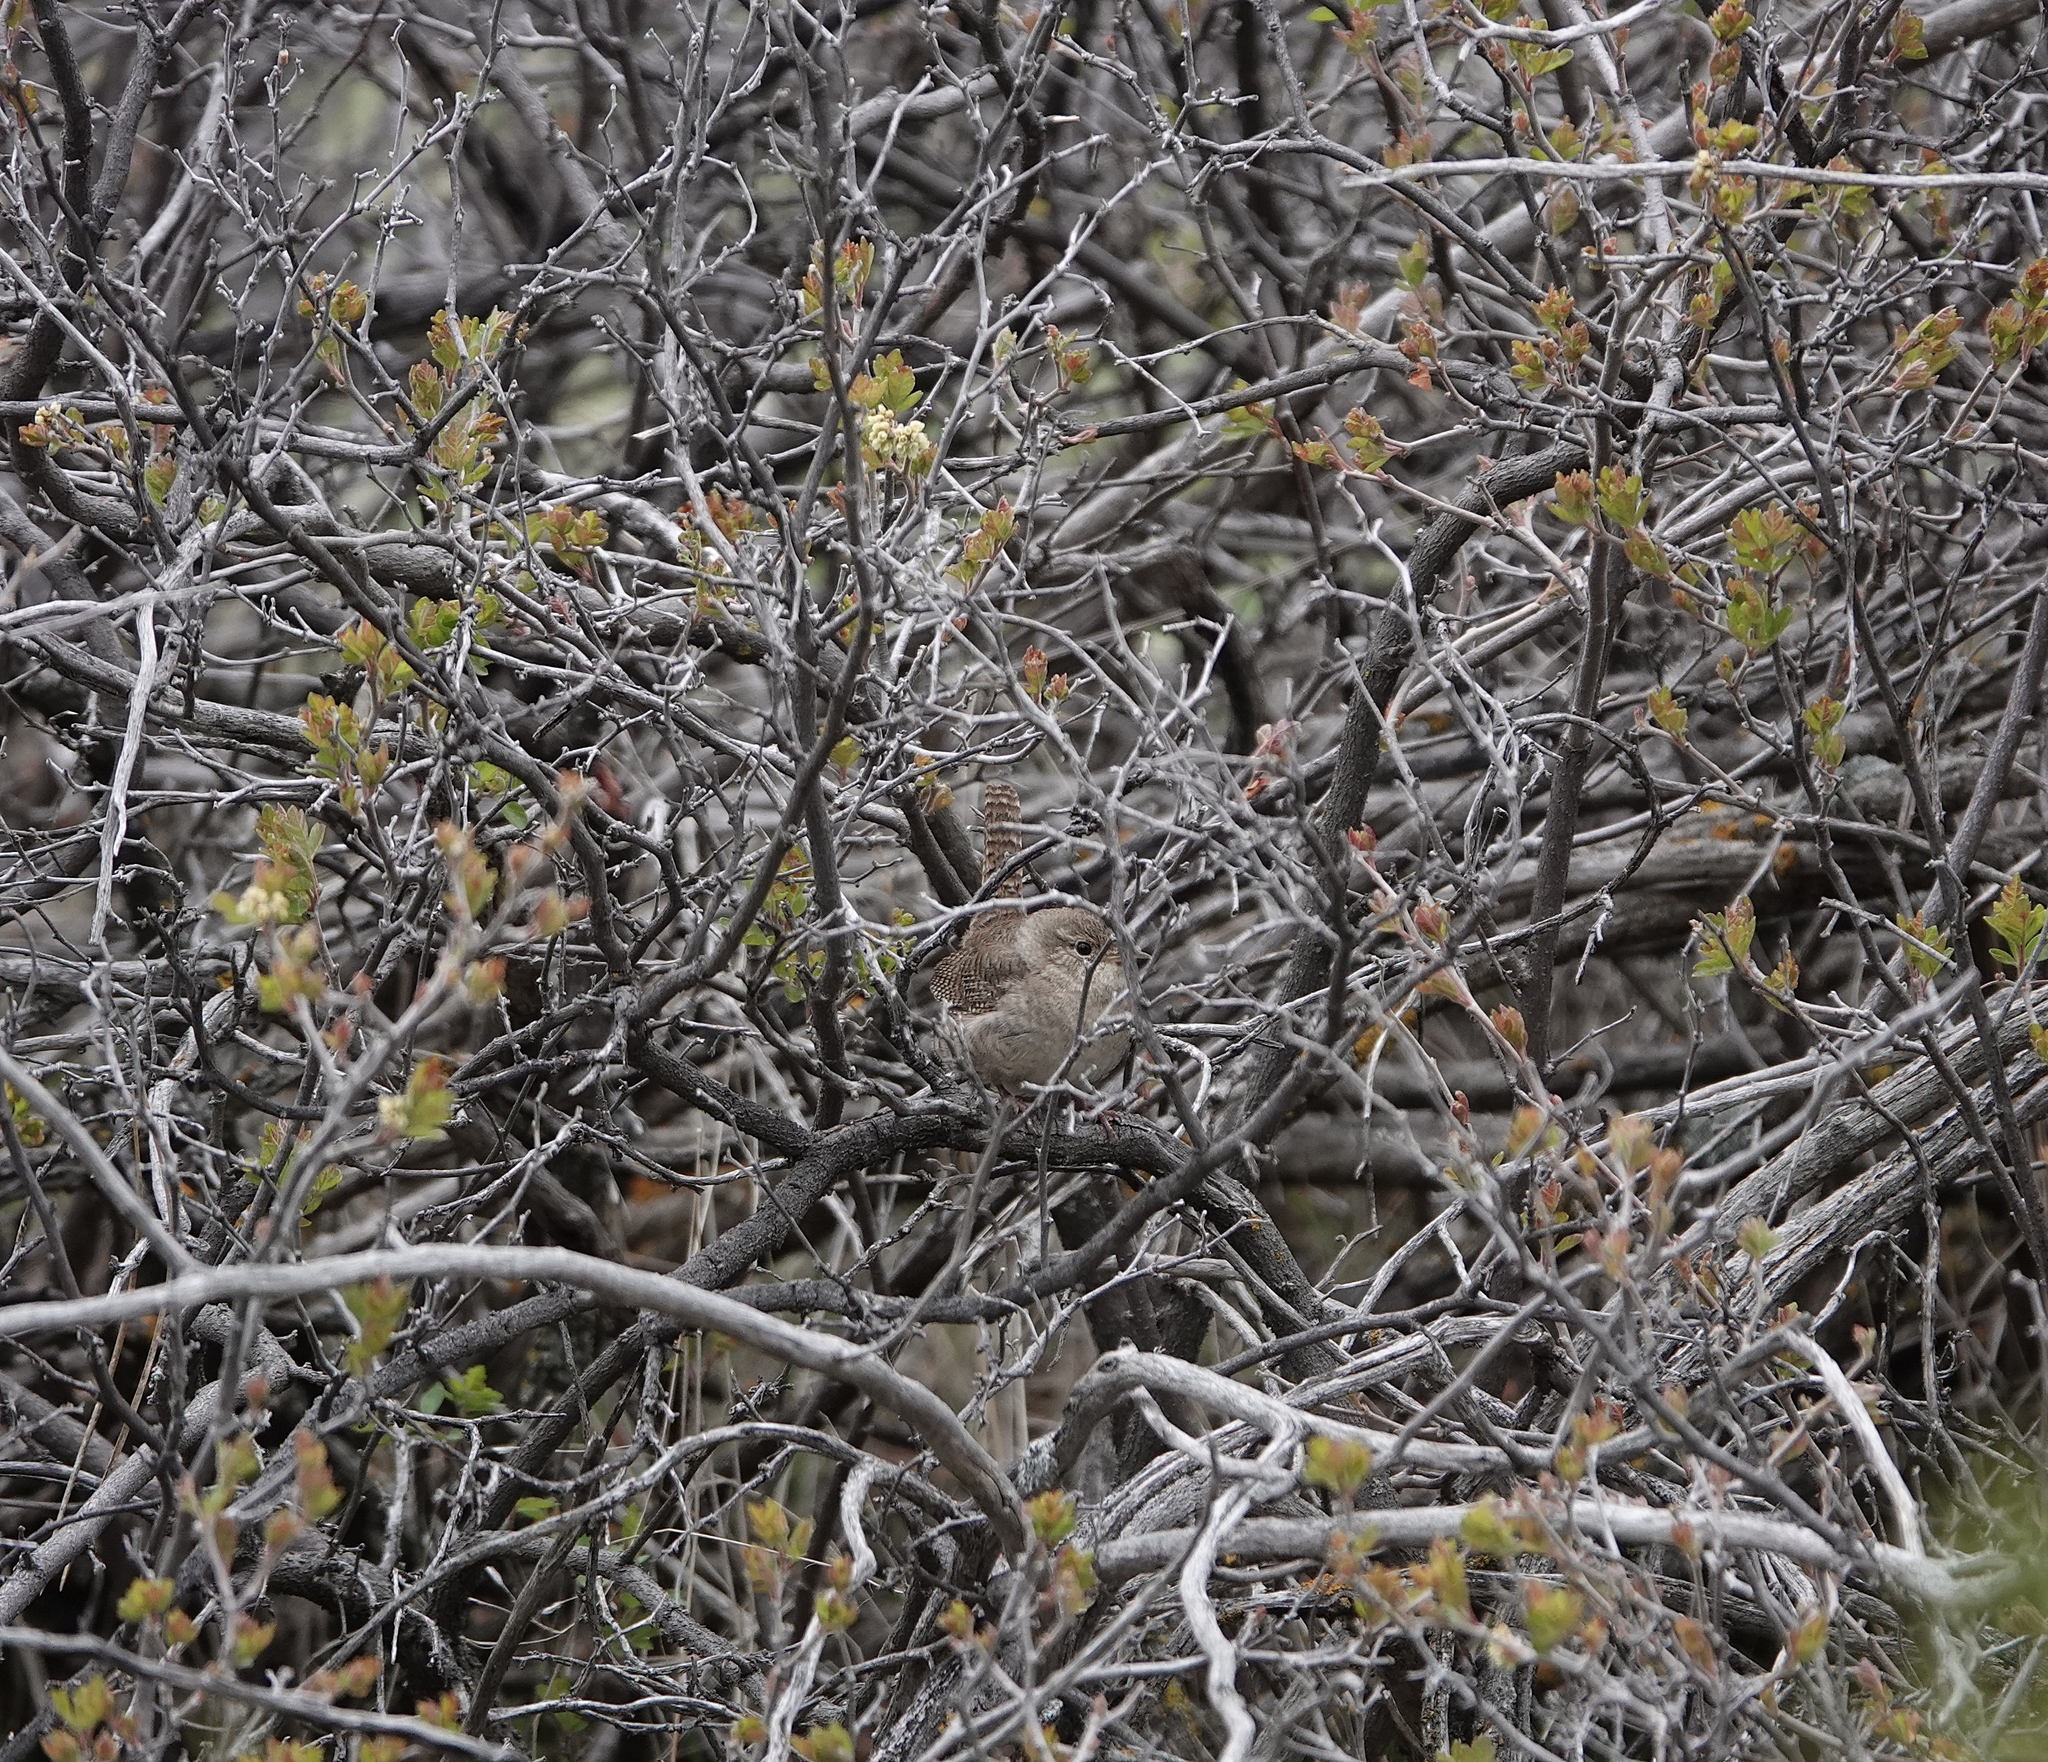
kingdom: Animalia
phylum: Chordata
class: Aves
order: Passeriformes
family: Troglodytidae
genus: Troglodytes
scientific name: Troglodytes aedon
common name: House wren
